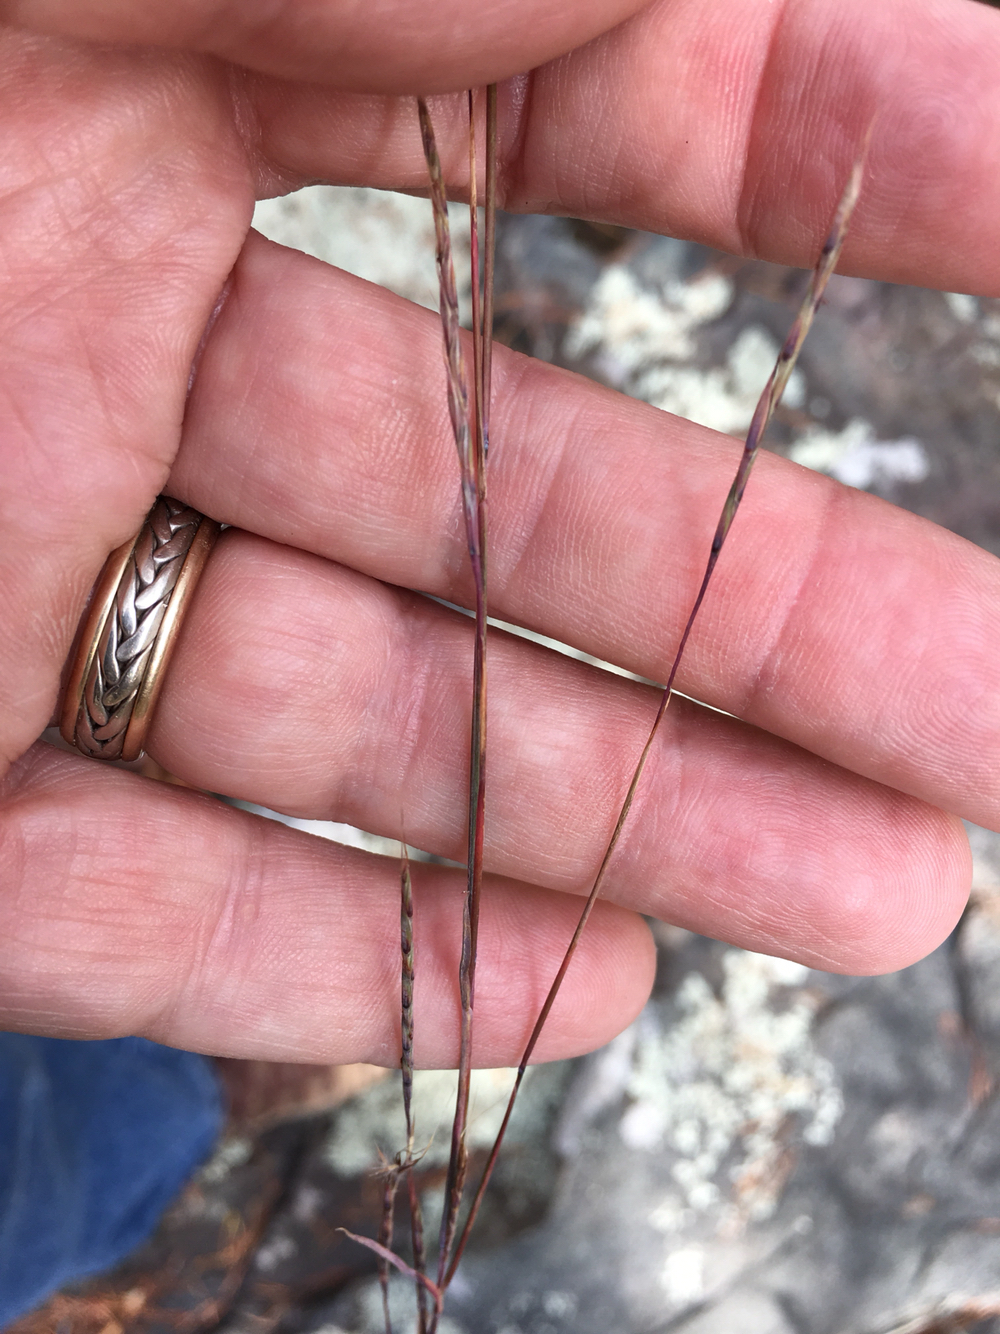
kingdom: Plantae
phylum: Tracheophyta
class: Liliopsida
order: Poales
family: Poaceae
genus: Schizachyrium
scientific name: Schizachyrium scoparium
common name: Little bluestem
